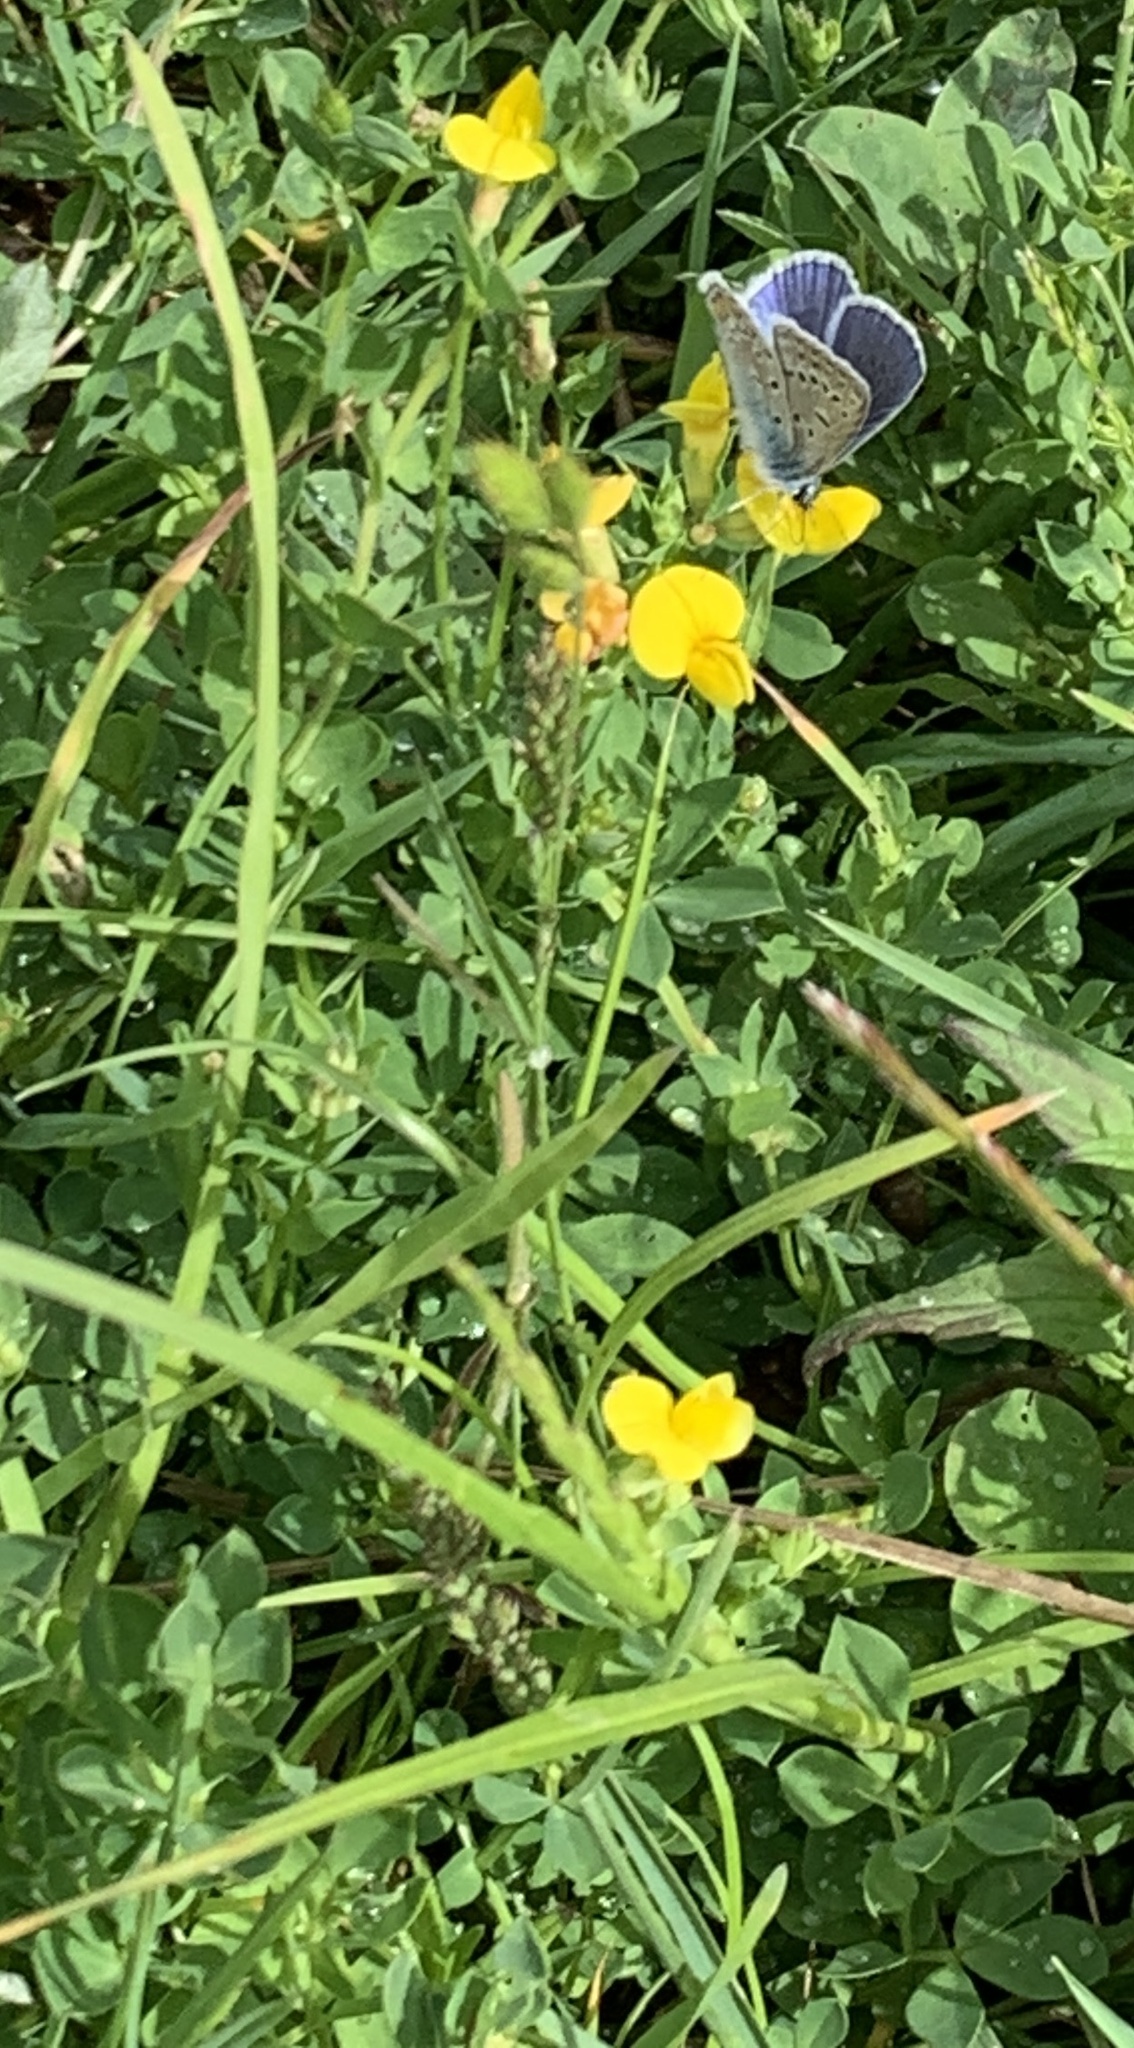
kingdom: Plantae
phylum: Tracheophyta
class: Magnoliopsida
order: Fabales
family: Fabaceae
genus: Lotus
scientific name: Lotus corniculatus
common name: Common bird's-foot-trefoil
